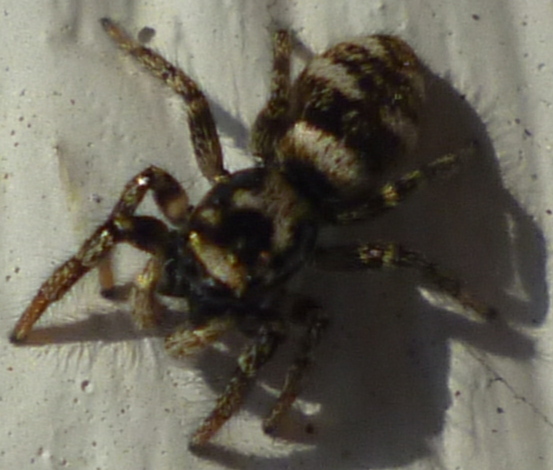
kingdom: Animalia
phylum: Arthropoda
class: Arachnida
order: Araneae
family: Salticidae
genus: Salticus
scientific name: Salticus scenicus
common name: Zebra jumper
